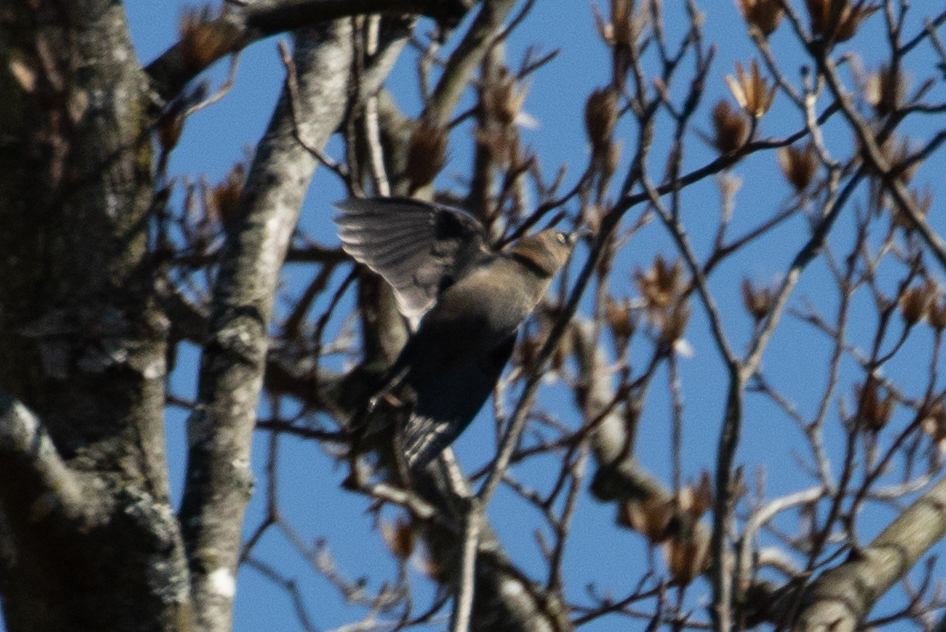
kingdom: Animalia
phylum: Chordata
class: Aves
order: Passeriformes
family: Icteridae
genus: Euphagus
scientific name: Euphagus carolinus
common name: Rusty blackbird
